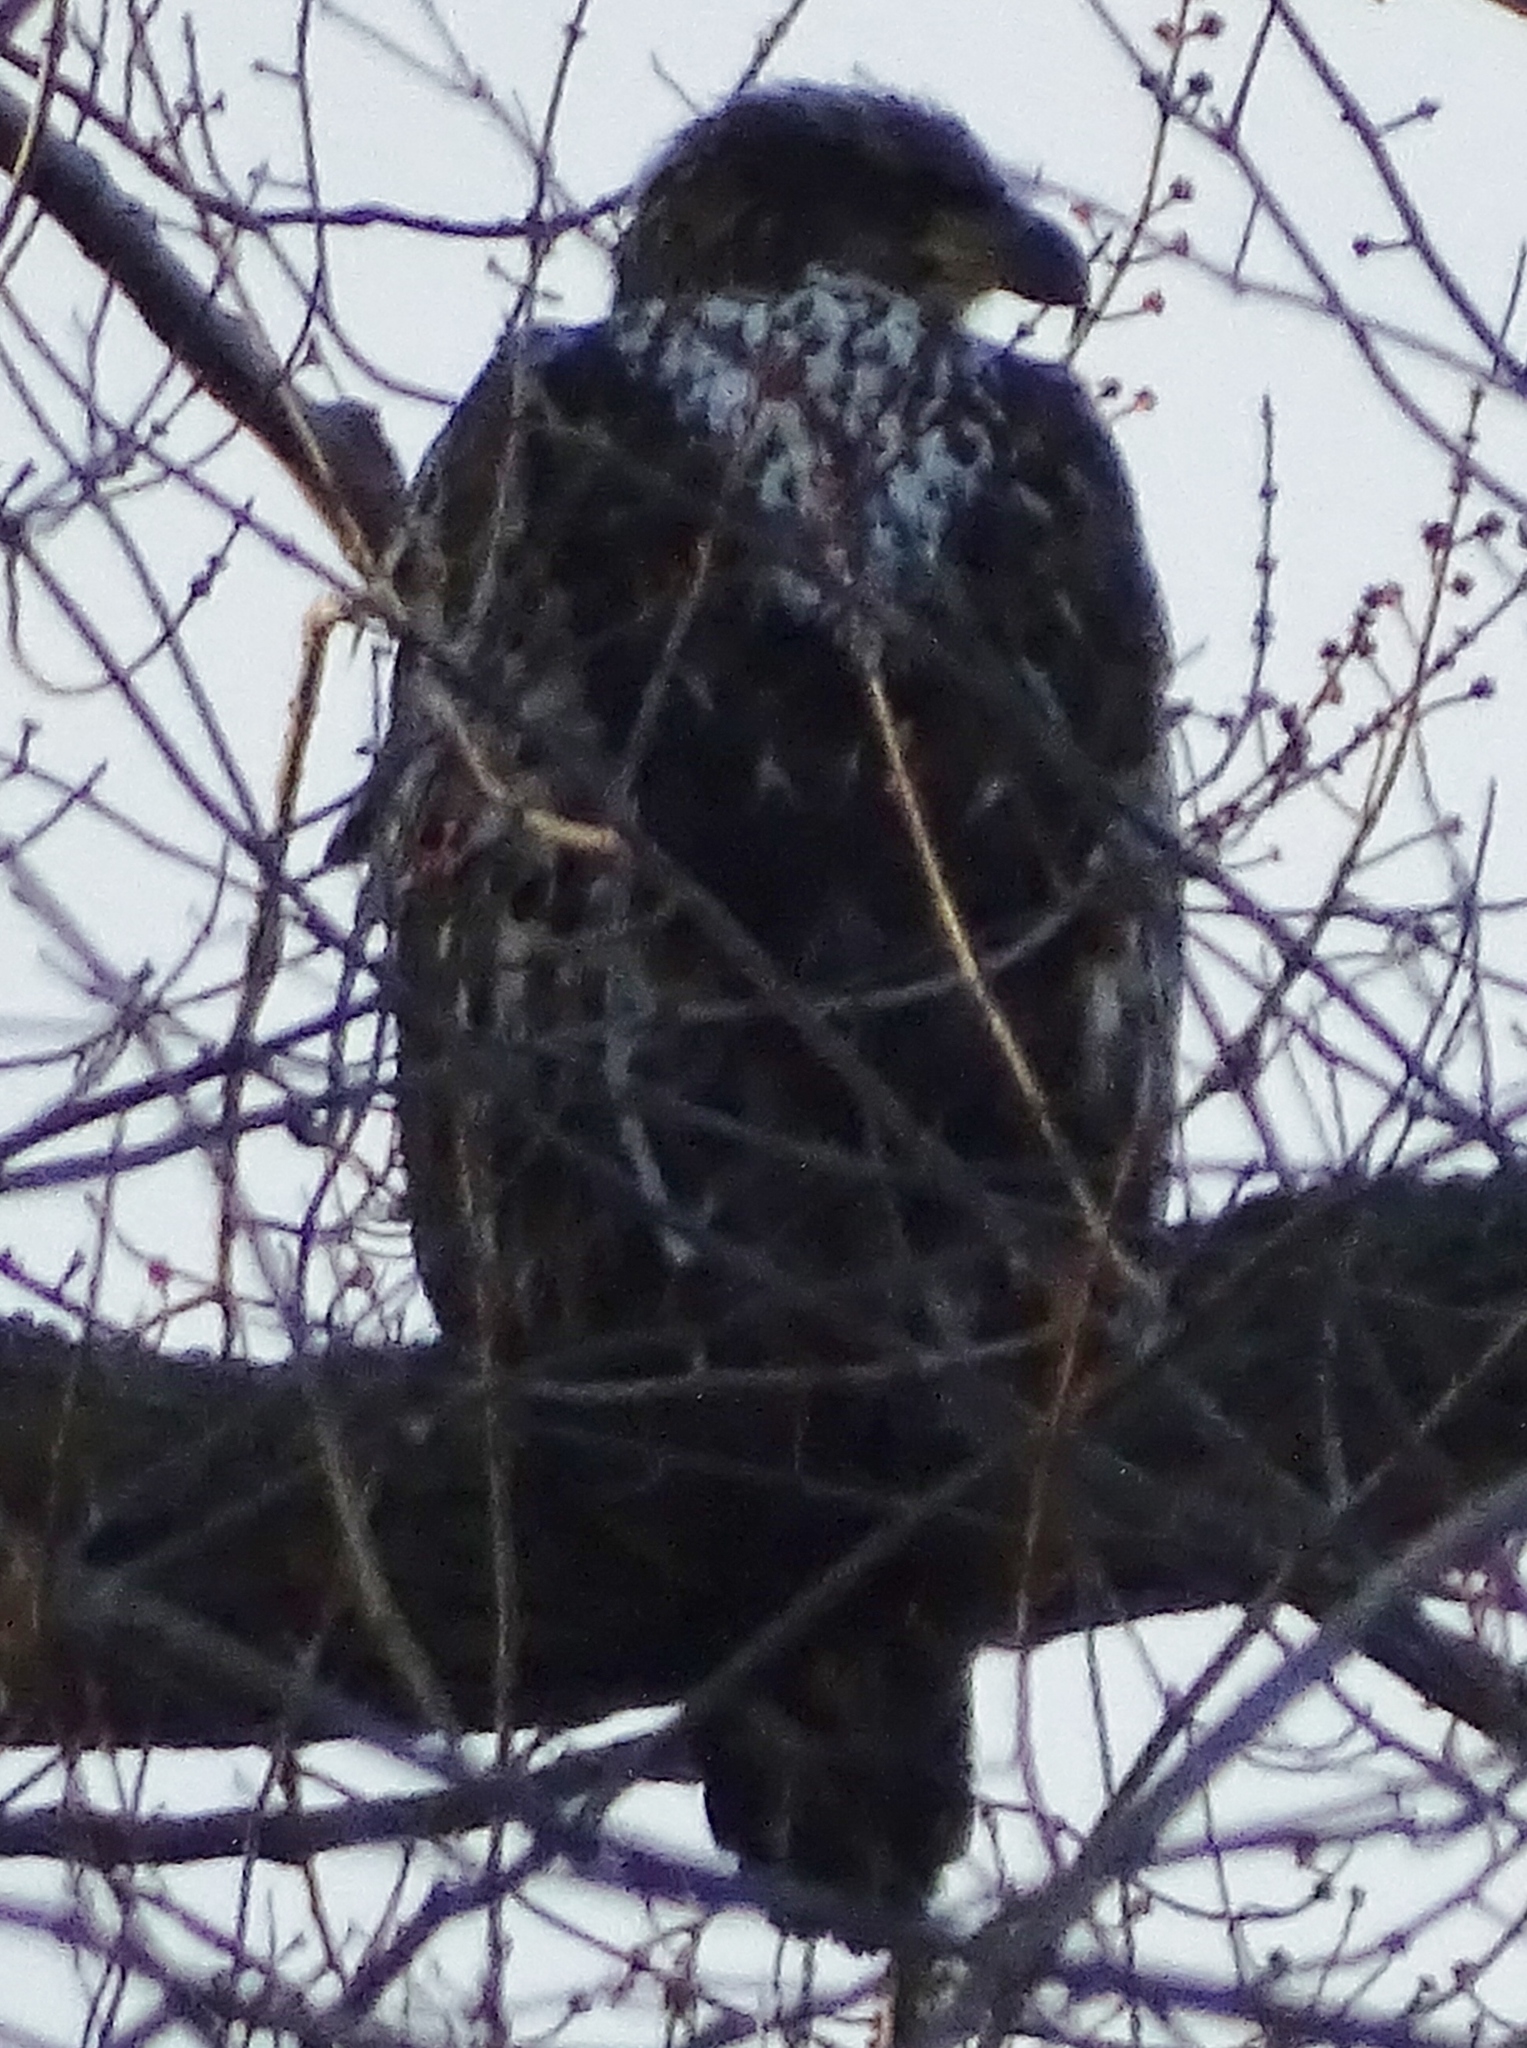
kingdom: Animalia
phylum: Chordata
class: Aves
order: Accipitriformes
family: Accipitridae
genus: Haliaeetus
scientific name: Haliaeetus leucocephalus
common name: Bald eagle
